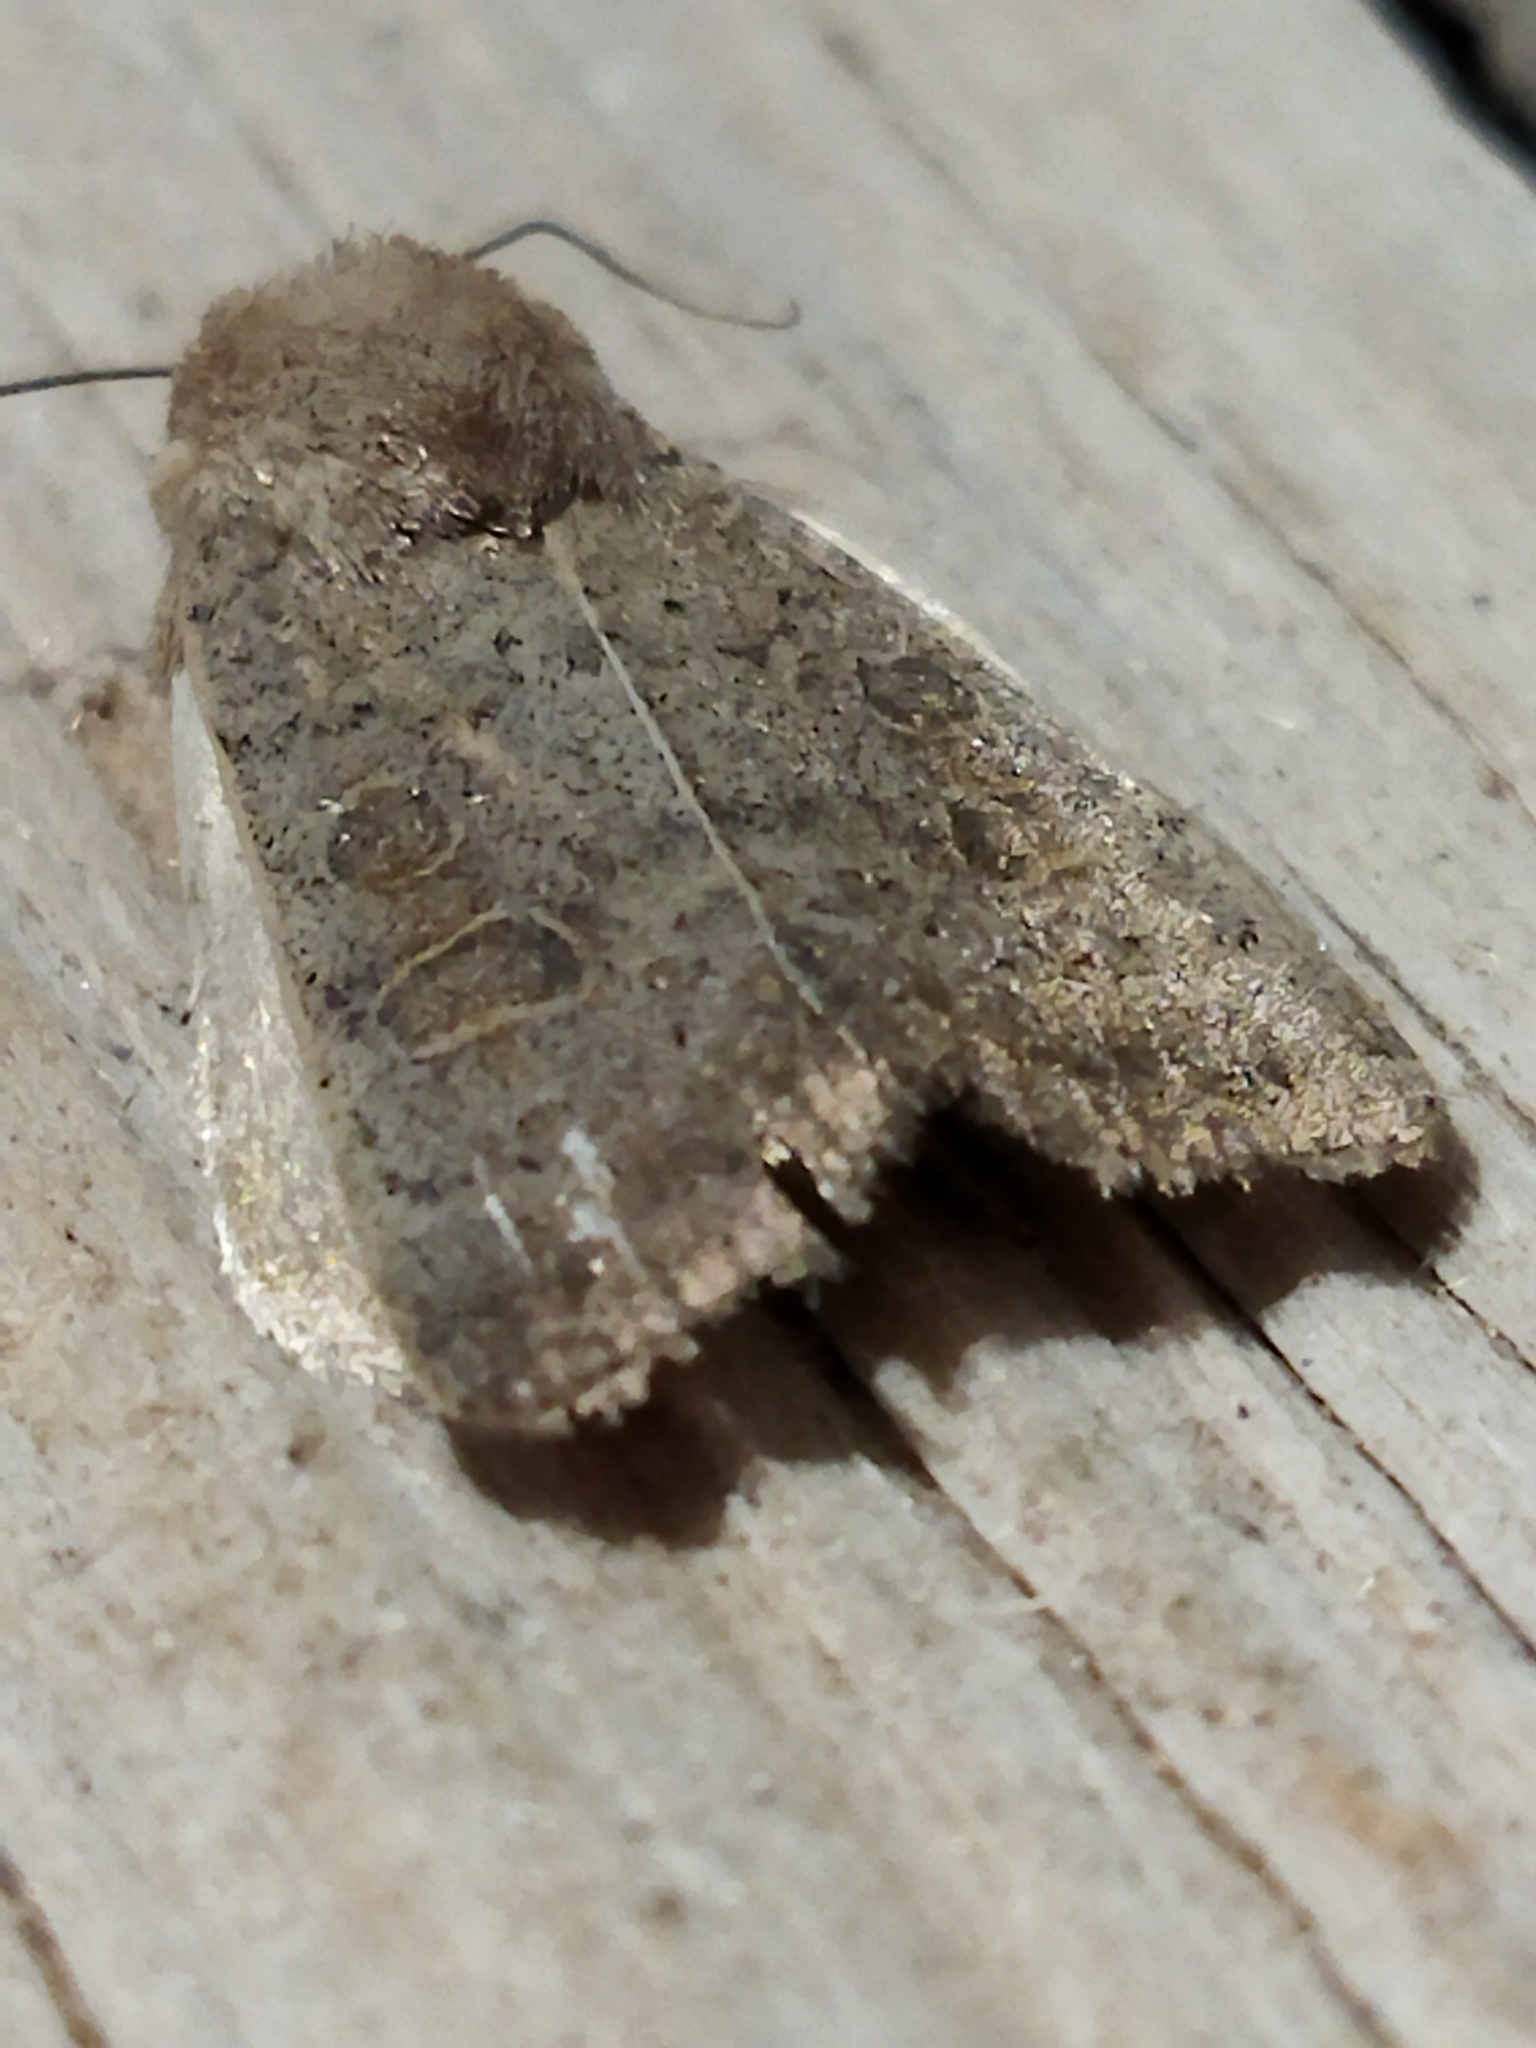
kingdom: Animalia
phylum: Arthropoda
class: Insecta
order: Lepidoptera
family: Noctuidae
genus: Hoplodrina
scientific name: Hoplodrina ambigua
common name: Vine's rustic
